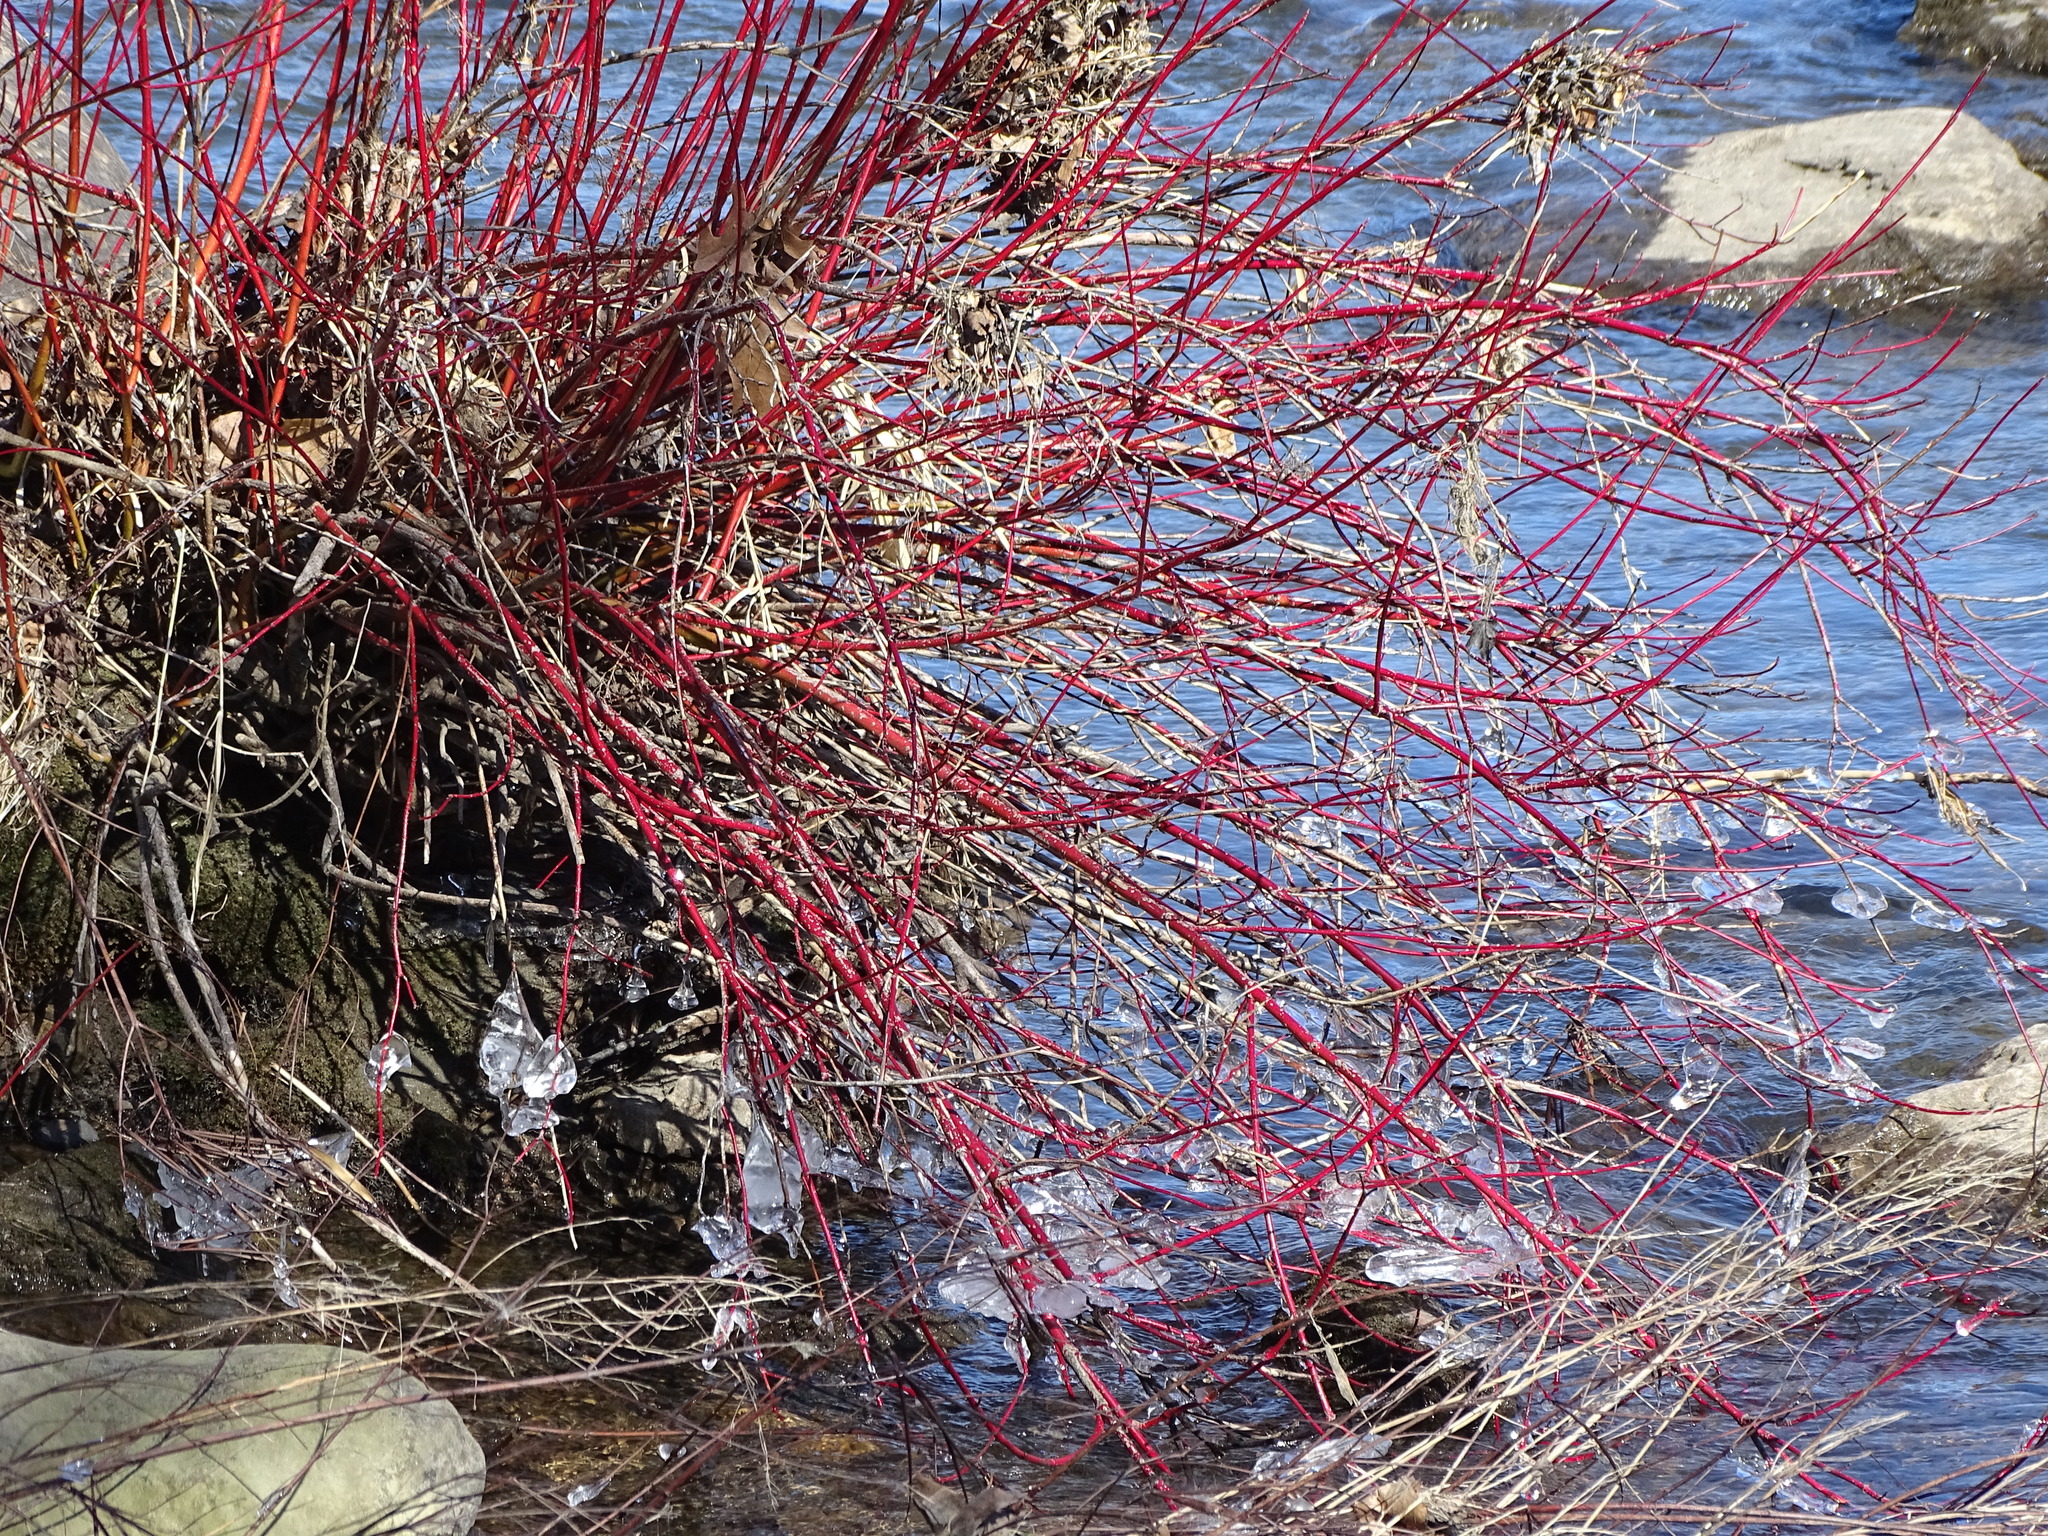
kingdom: Plantae
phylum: Tracheophyta
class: Magnoliopsida
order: Cornales
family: Cornaceae
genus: Cornus
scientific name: Cornus sericea
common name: Red-osier dogwood
